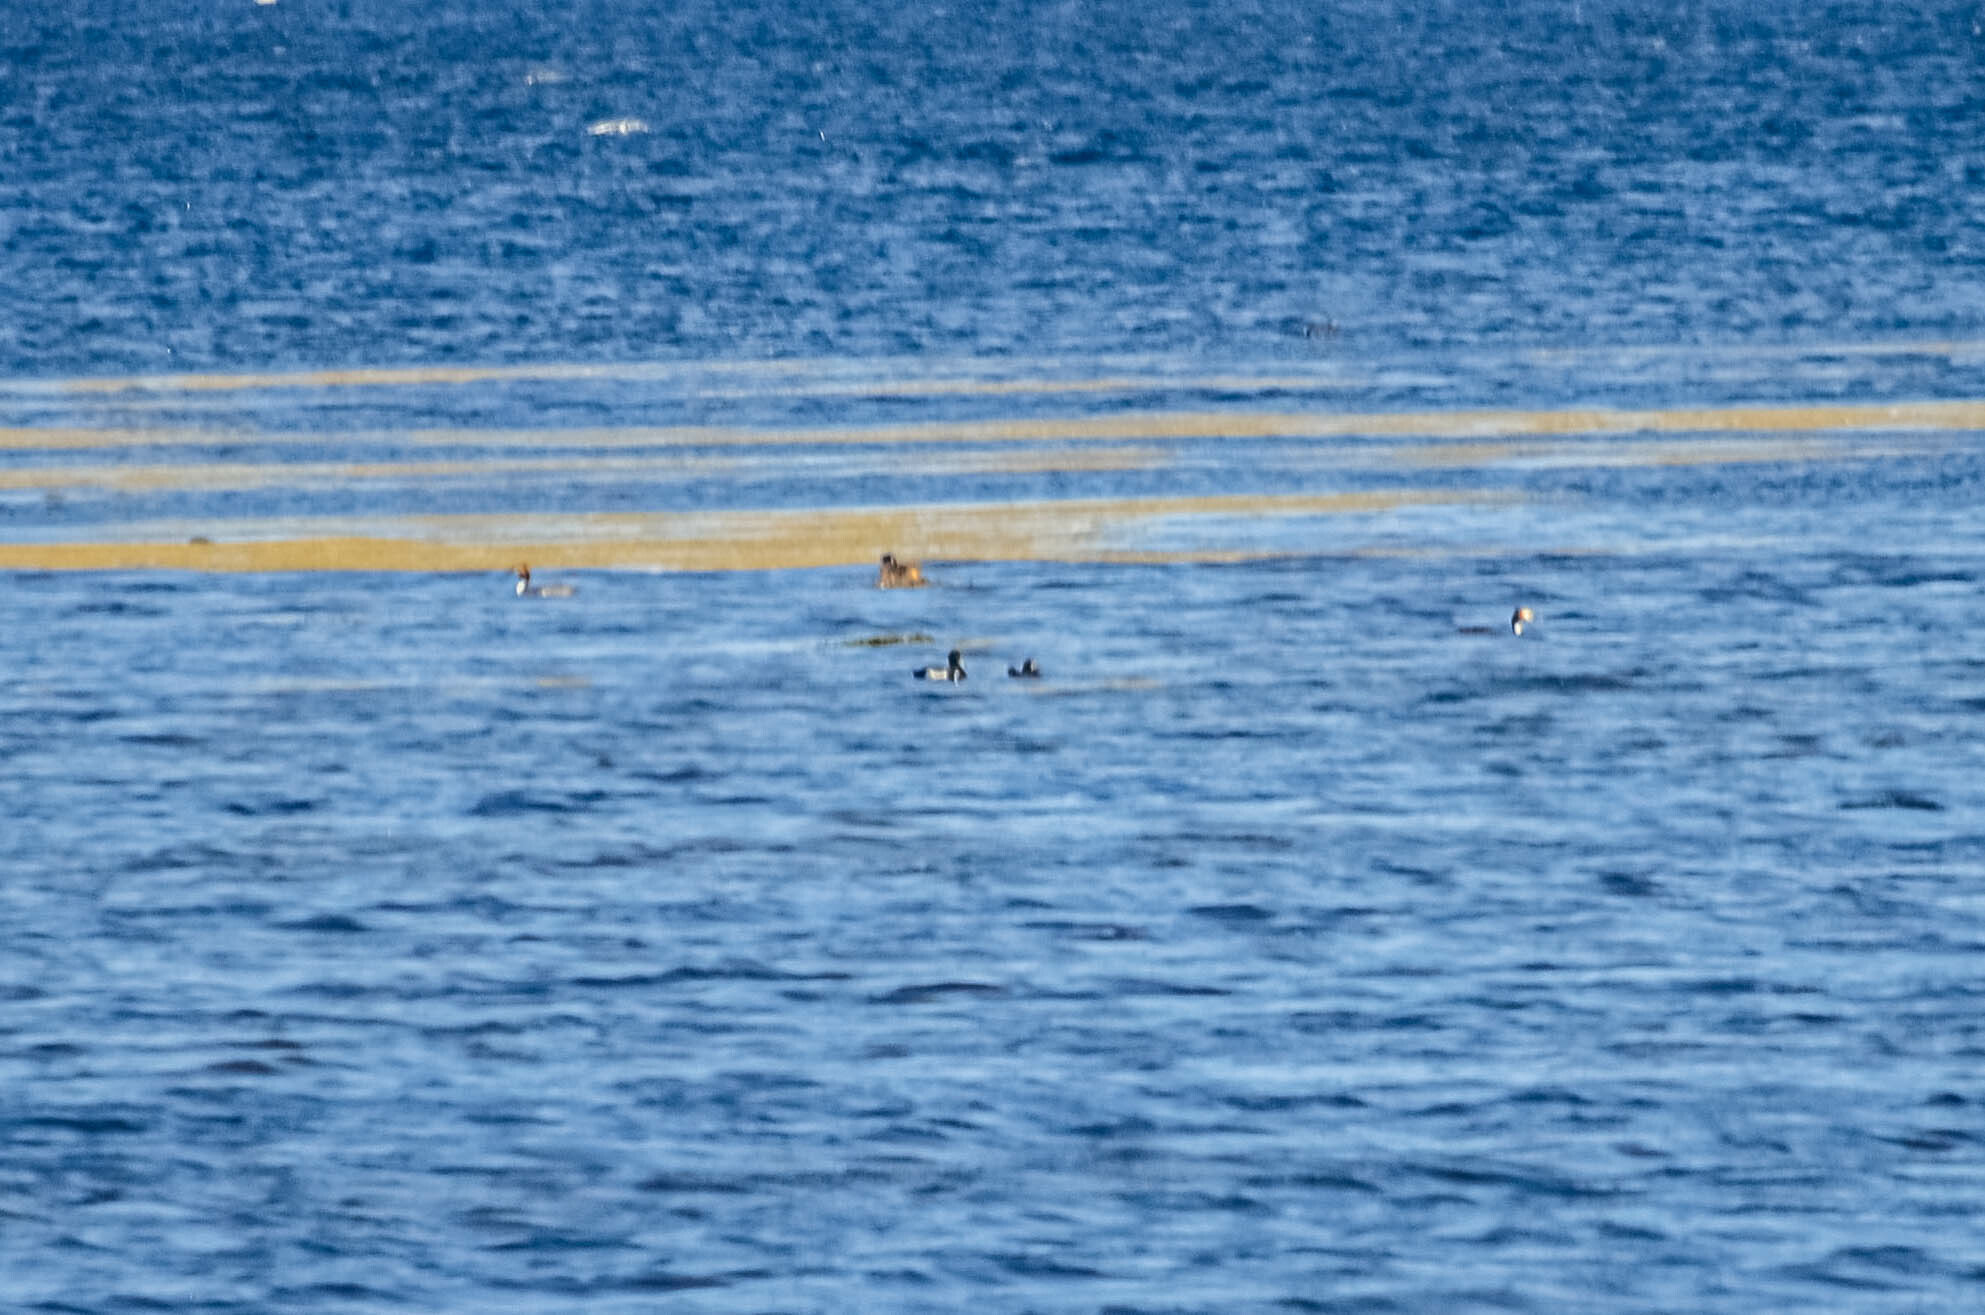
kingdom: Animalia
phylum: Chordata
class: Aves
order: Anseriformes
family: Anatidae
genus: Aythya
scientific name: Aythya fuligula
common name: Tufted duck
